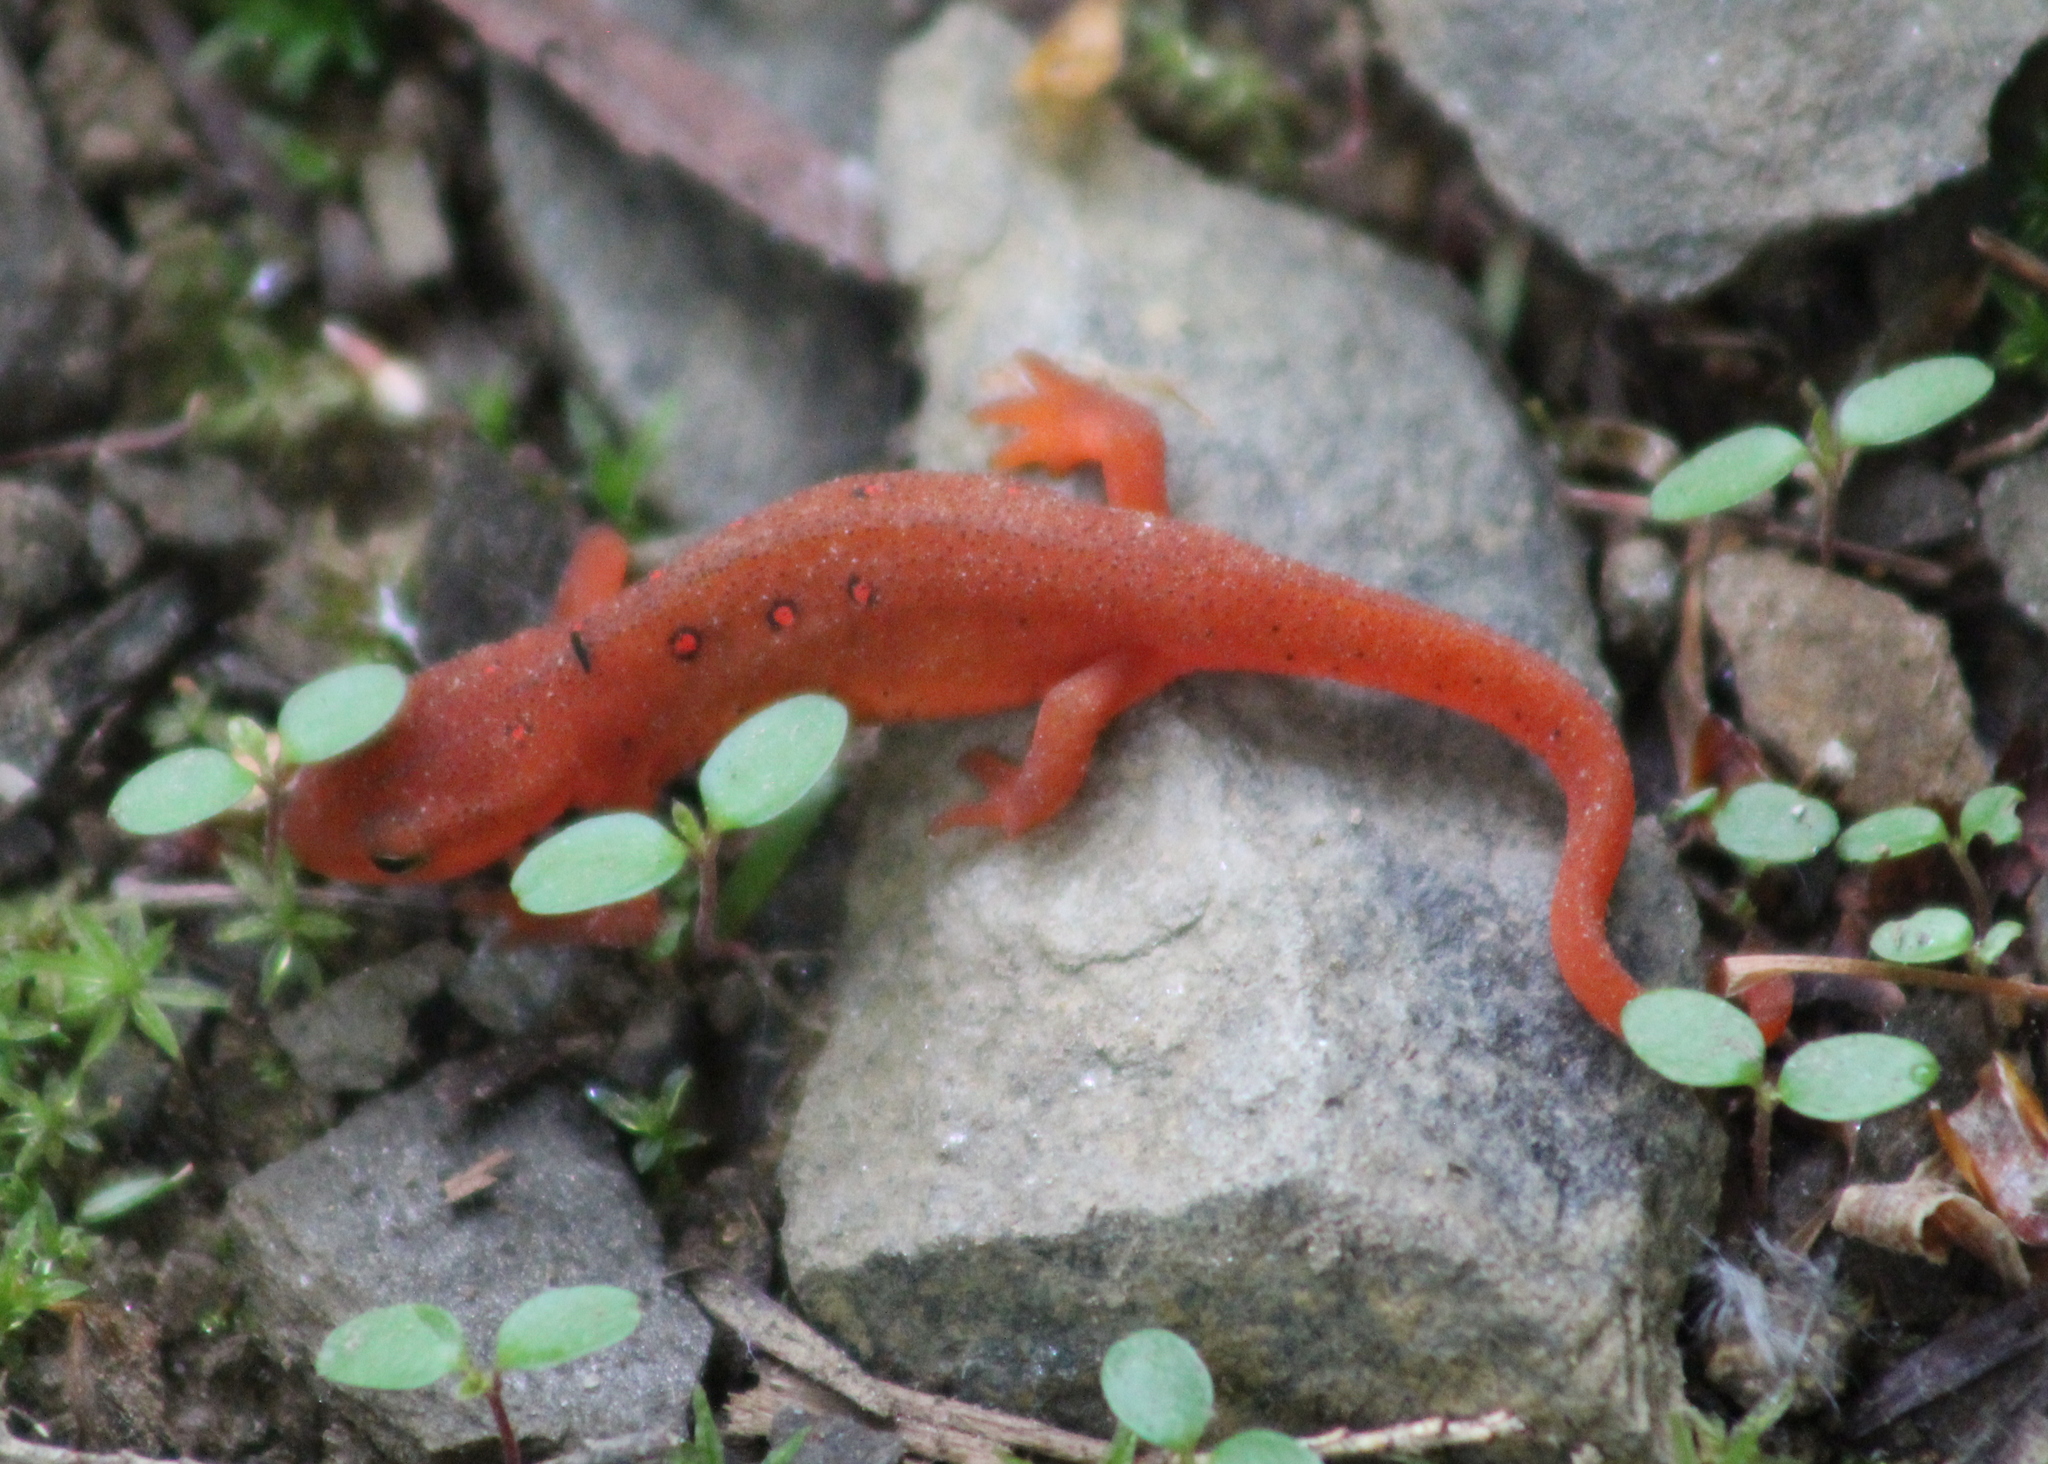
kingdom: Animalia
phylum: Chordata
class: Amphibia
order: Caudata
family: Salamandridae
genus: Notophthalmus
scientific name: Notophthalmus viridescens
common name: Eastern newt
